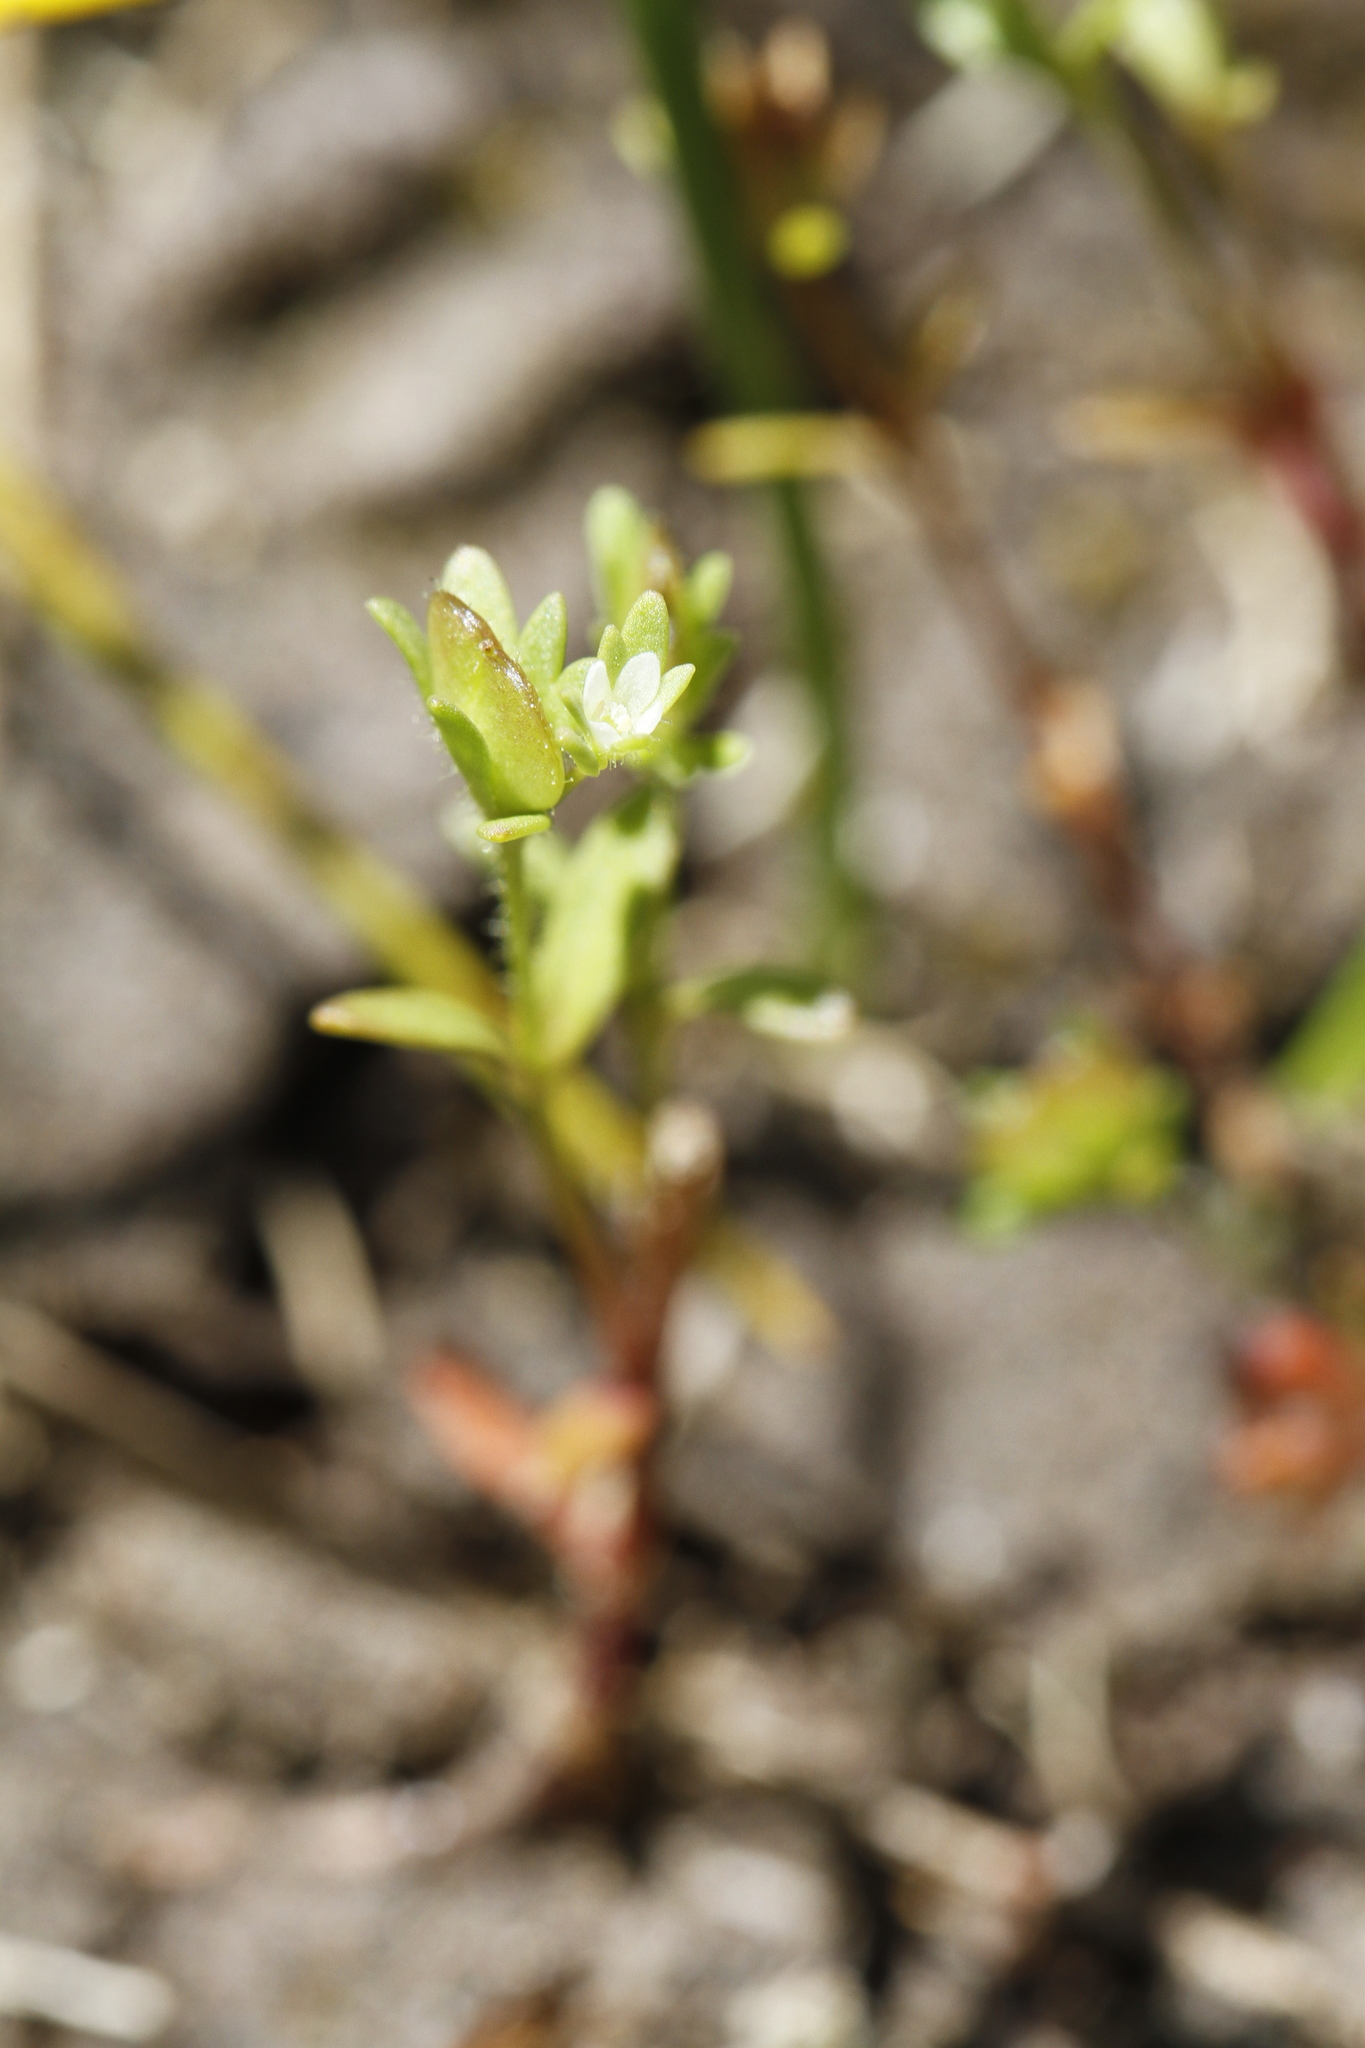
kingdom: Plantae
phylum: Tracheophyta
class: Magnoliopsida
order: Lamiales
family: Plantaginaceae
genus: Veronica
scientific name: Veronica peregrina
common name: Neckweed
